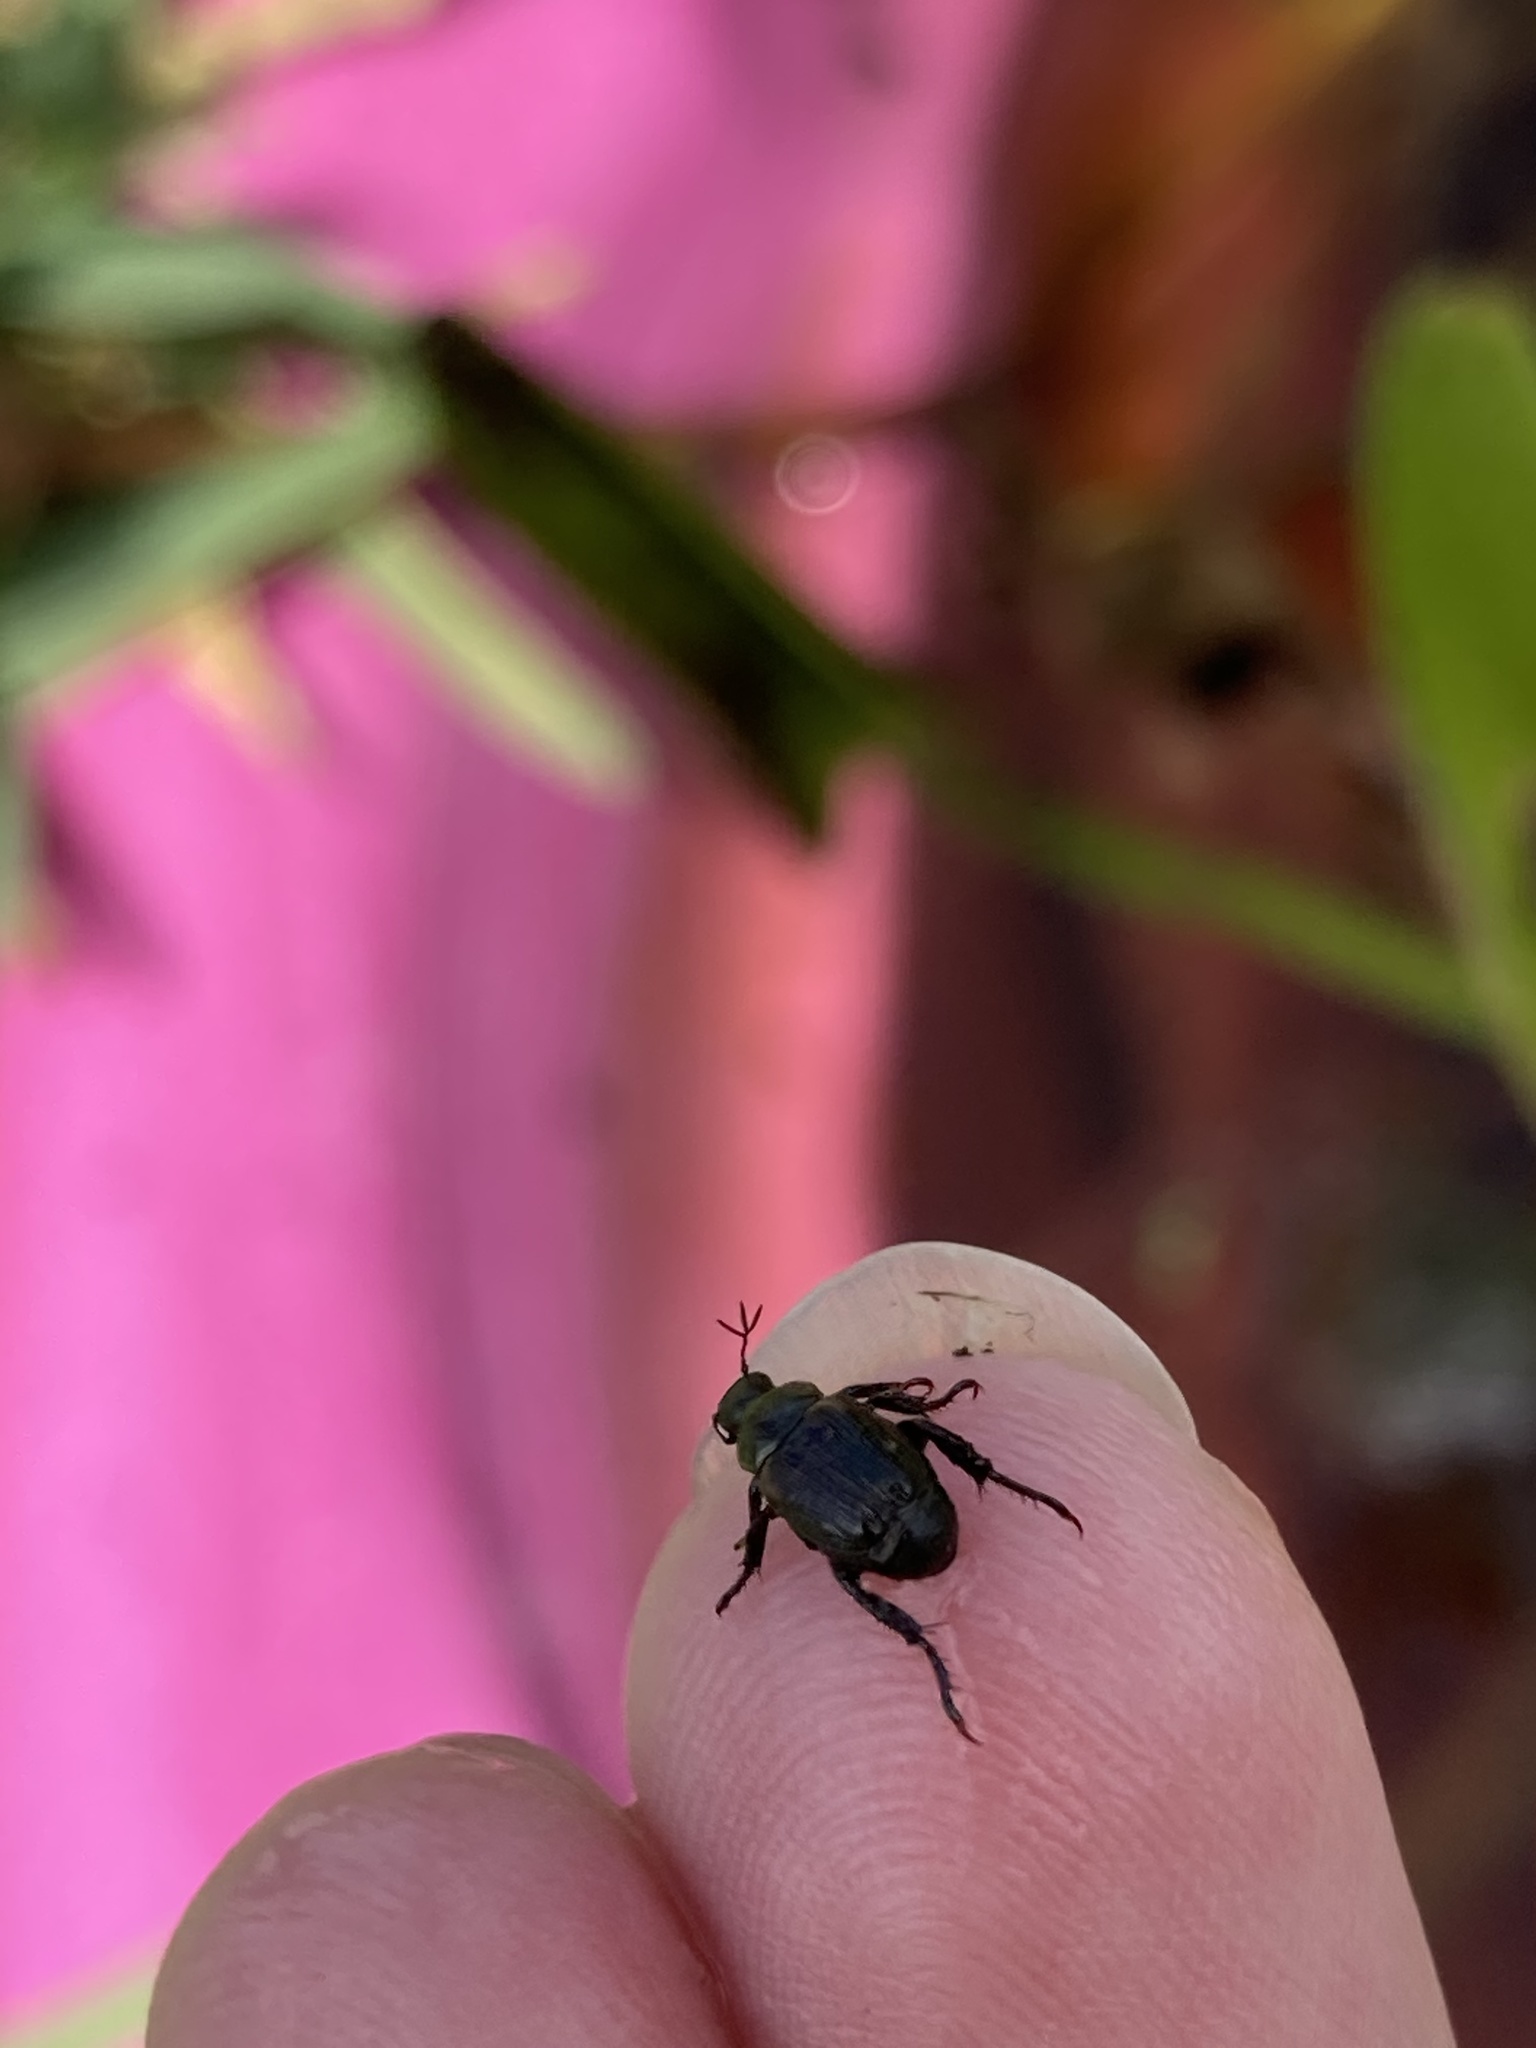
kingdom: Animalia
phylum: Arthropoda
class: Insecta
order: Coleoptera
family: Scarabaeidae
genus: Strigoderma
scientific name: Strigoderma pygmaea
